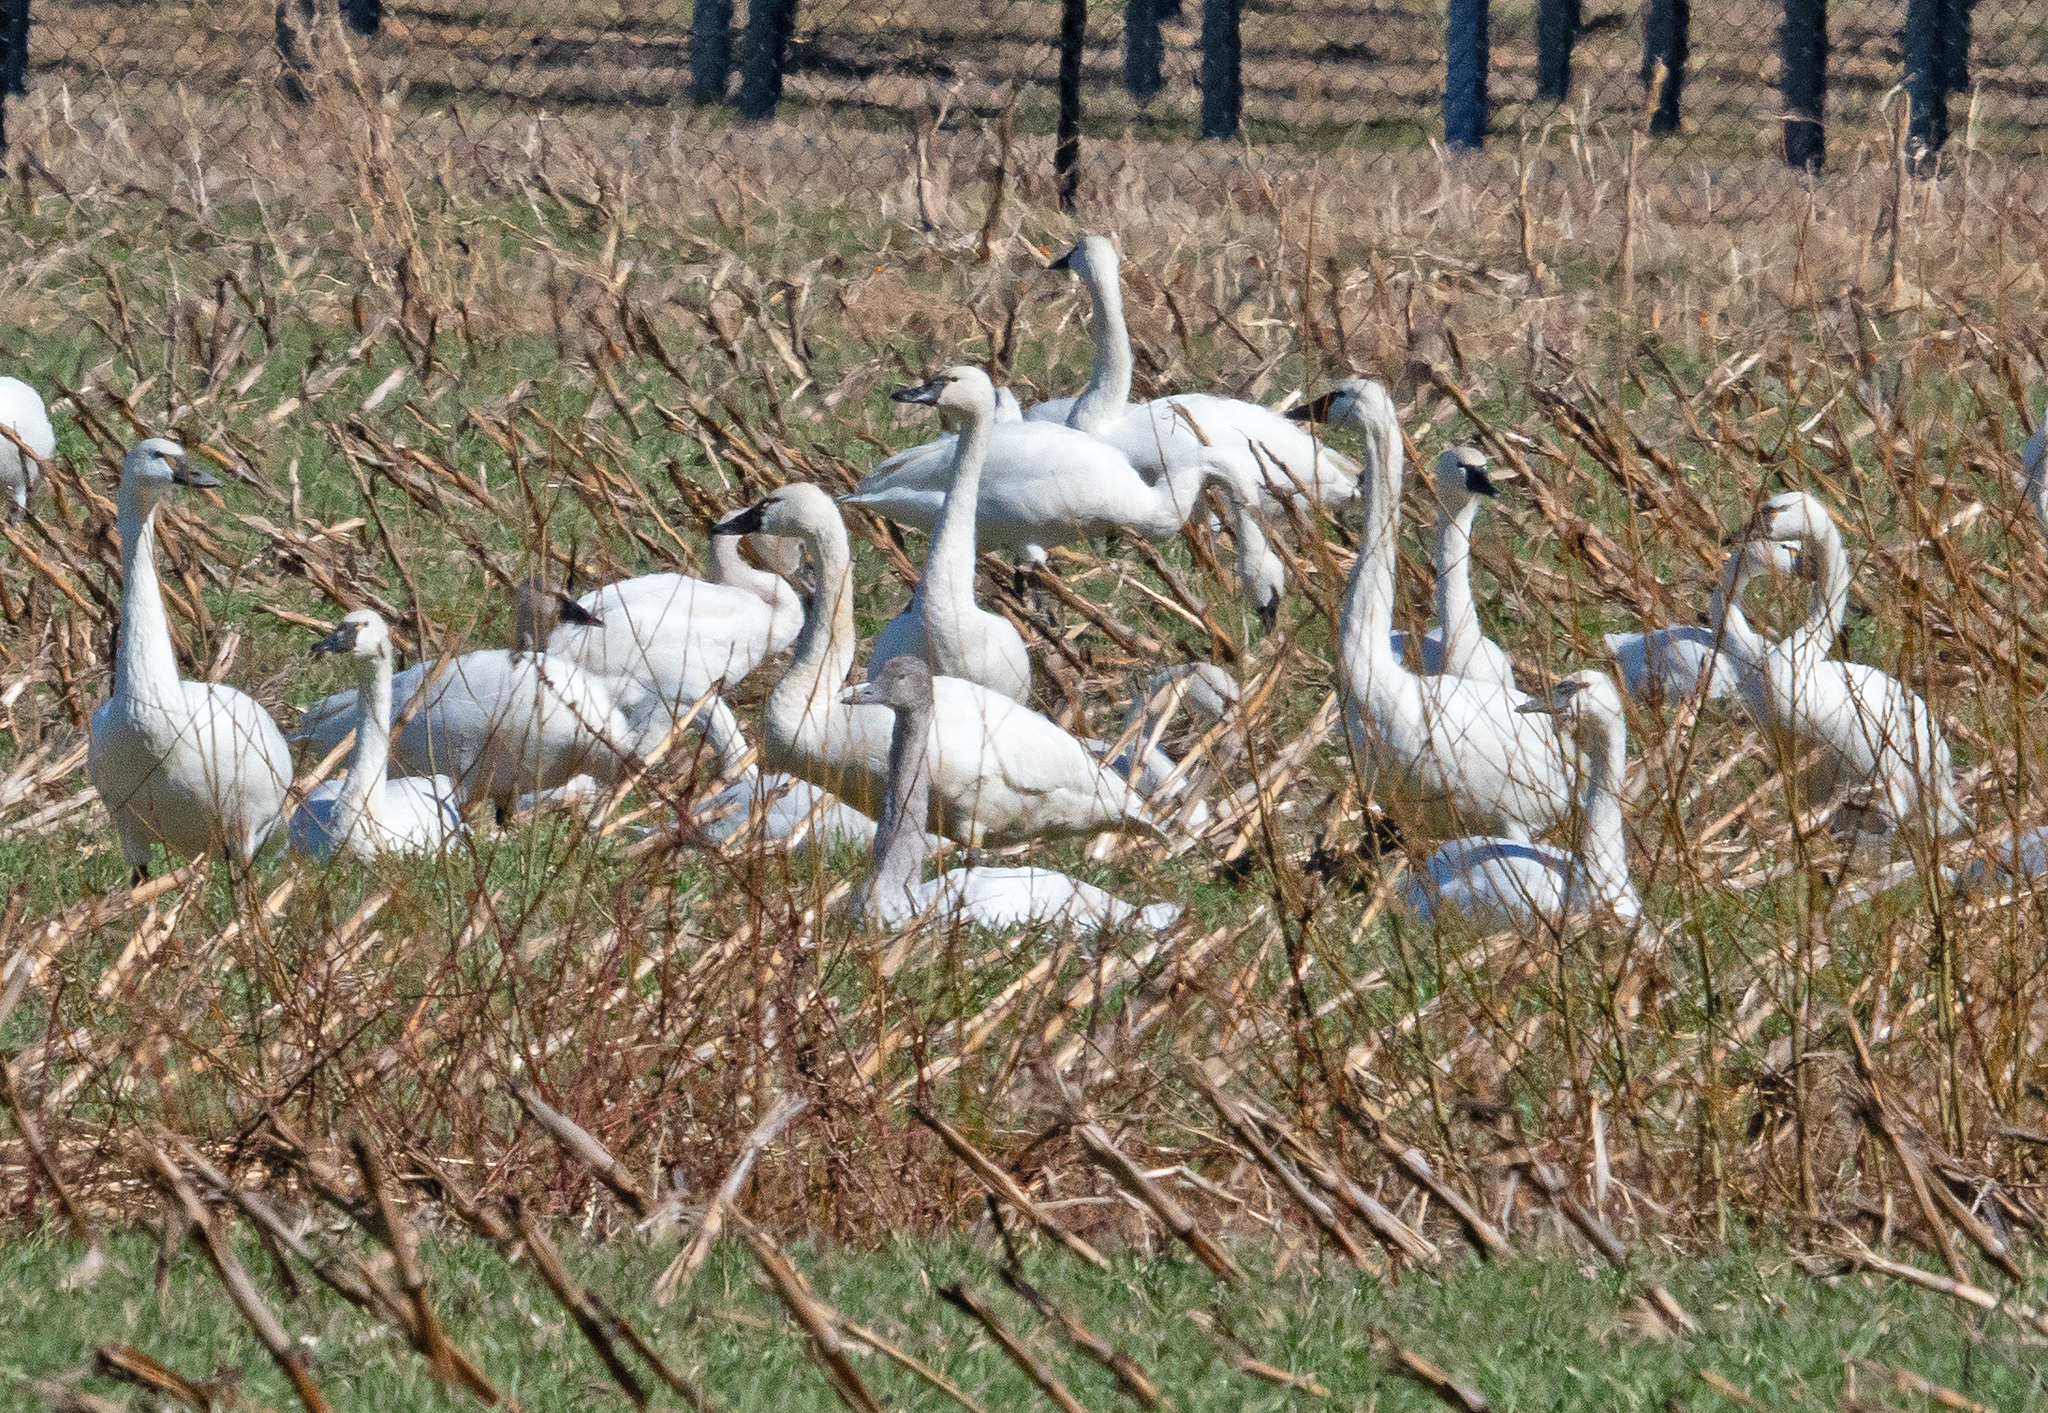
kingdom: Animalia
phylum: Chordata
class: Aves
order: Anseriformes
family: Anatidae
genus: Cygnus
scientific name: Cygnus columbianus
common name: Tundra swan
